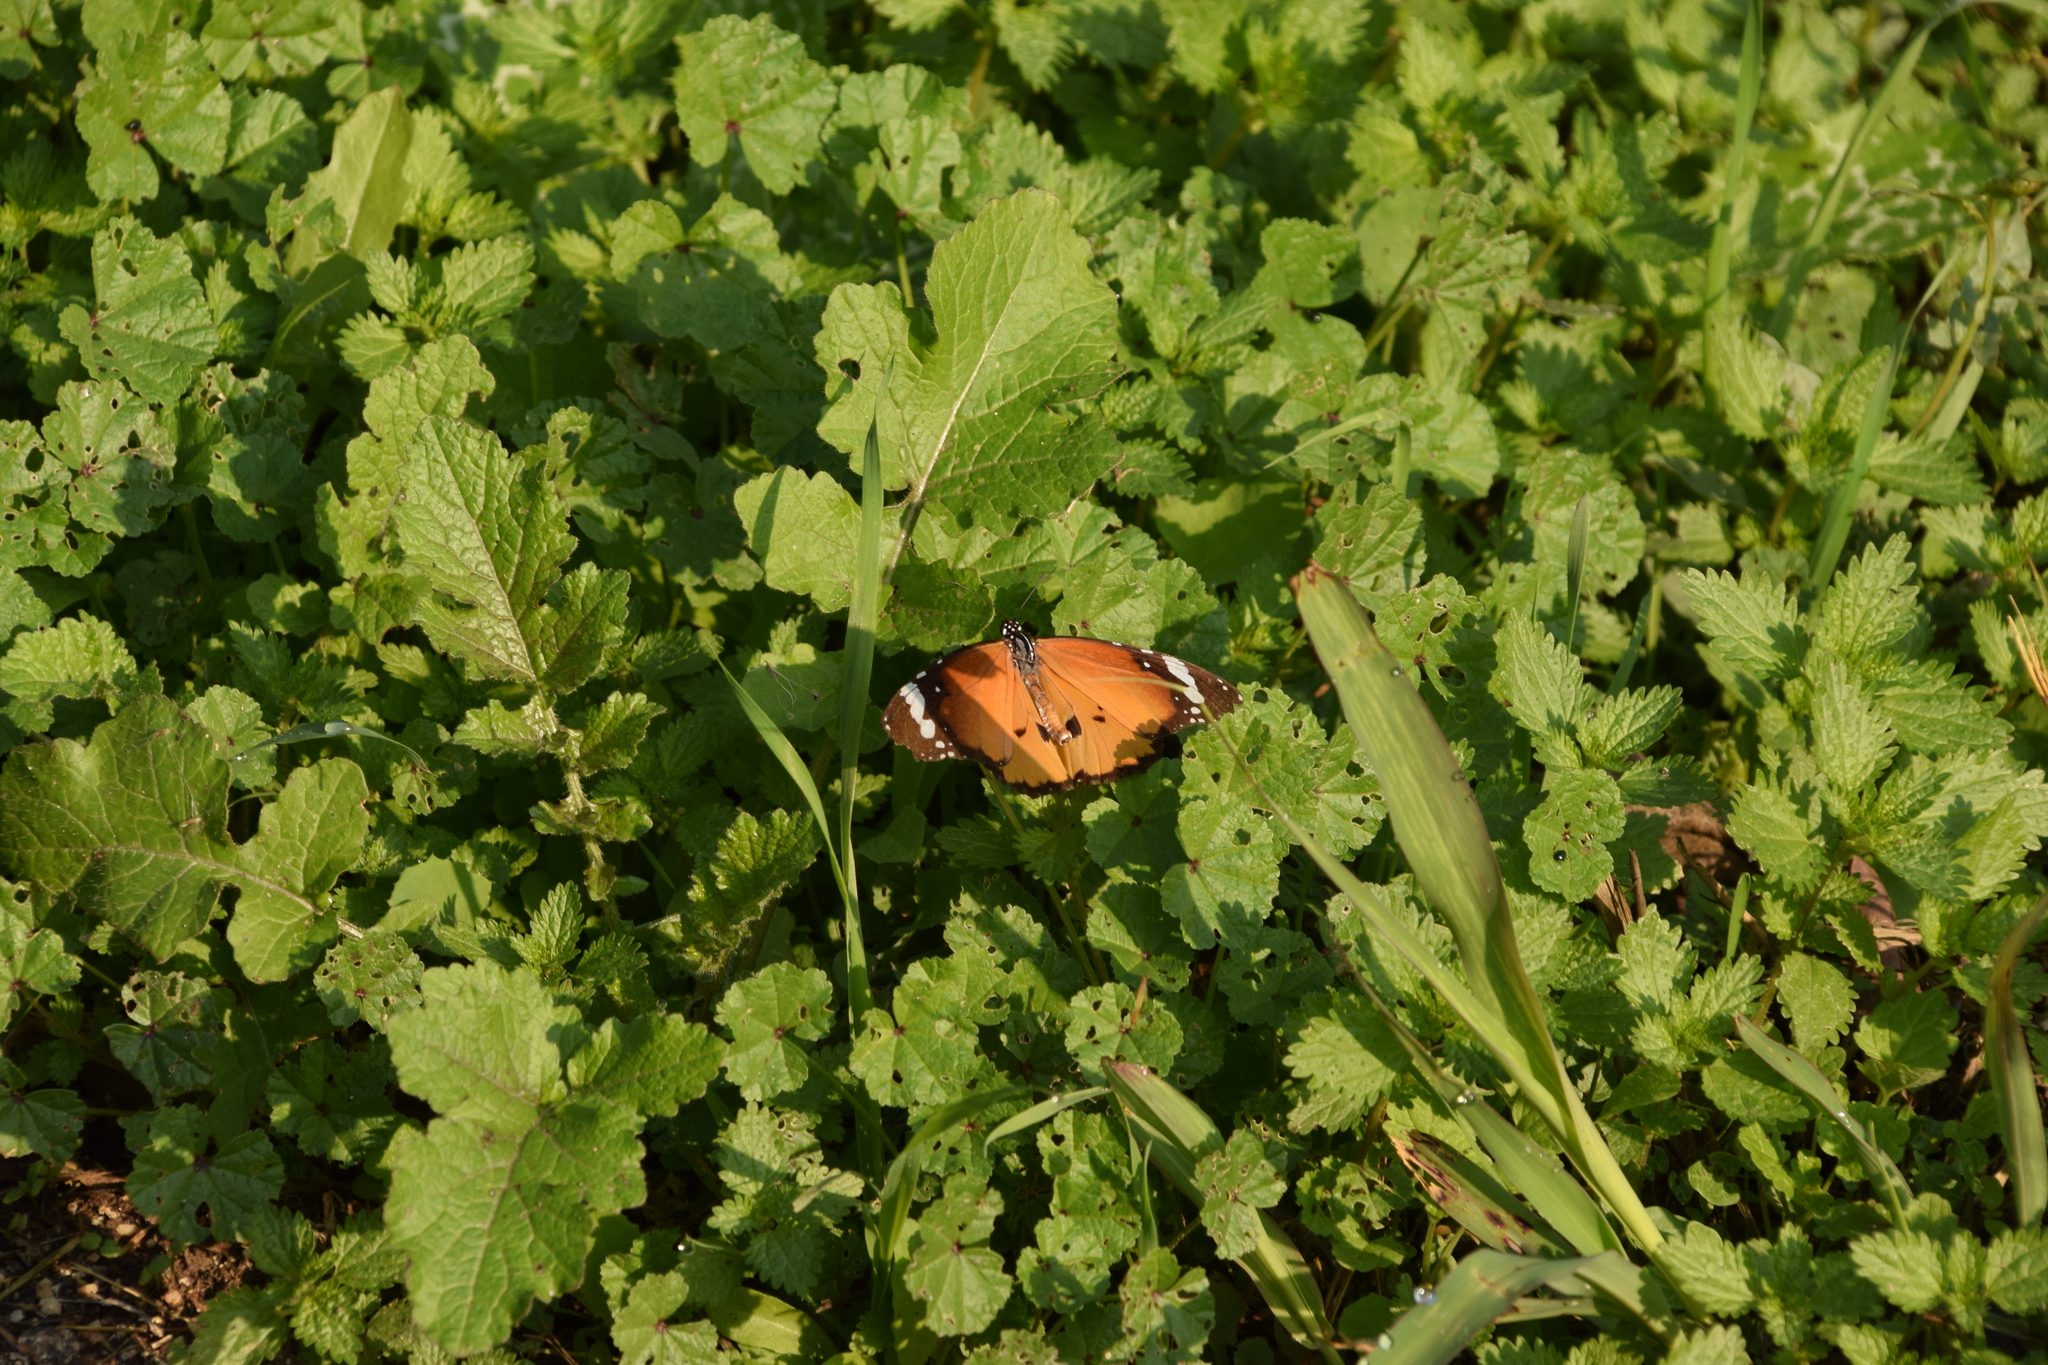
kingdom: Animalia
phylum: Arthropoda
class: Insecta
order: Lepidoptera
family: Nymphalidae
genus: Danaus
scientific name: Danaus chrysippus
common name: Plain tiger
